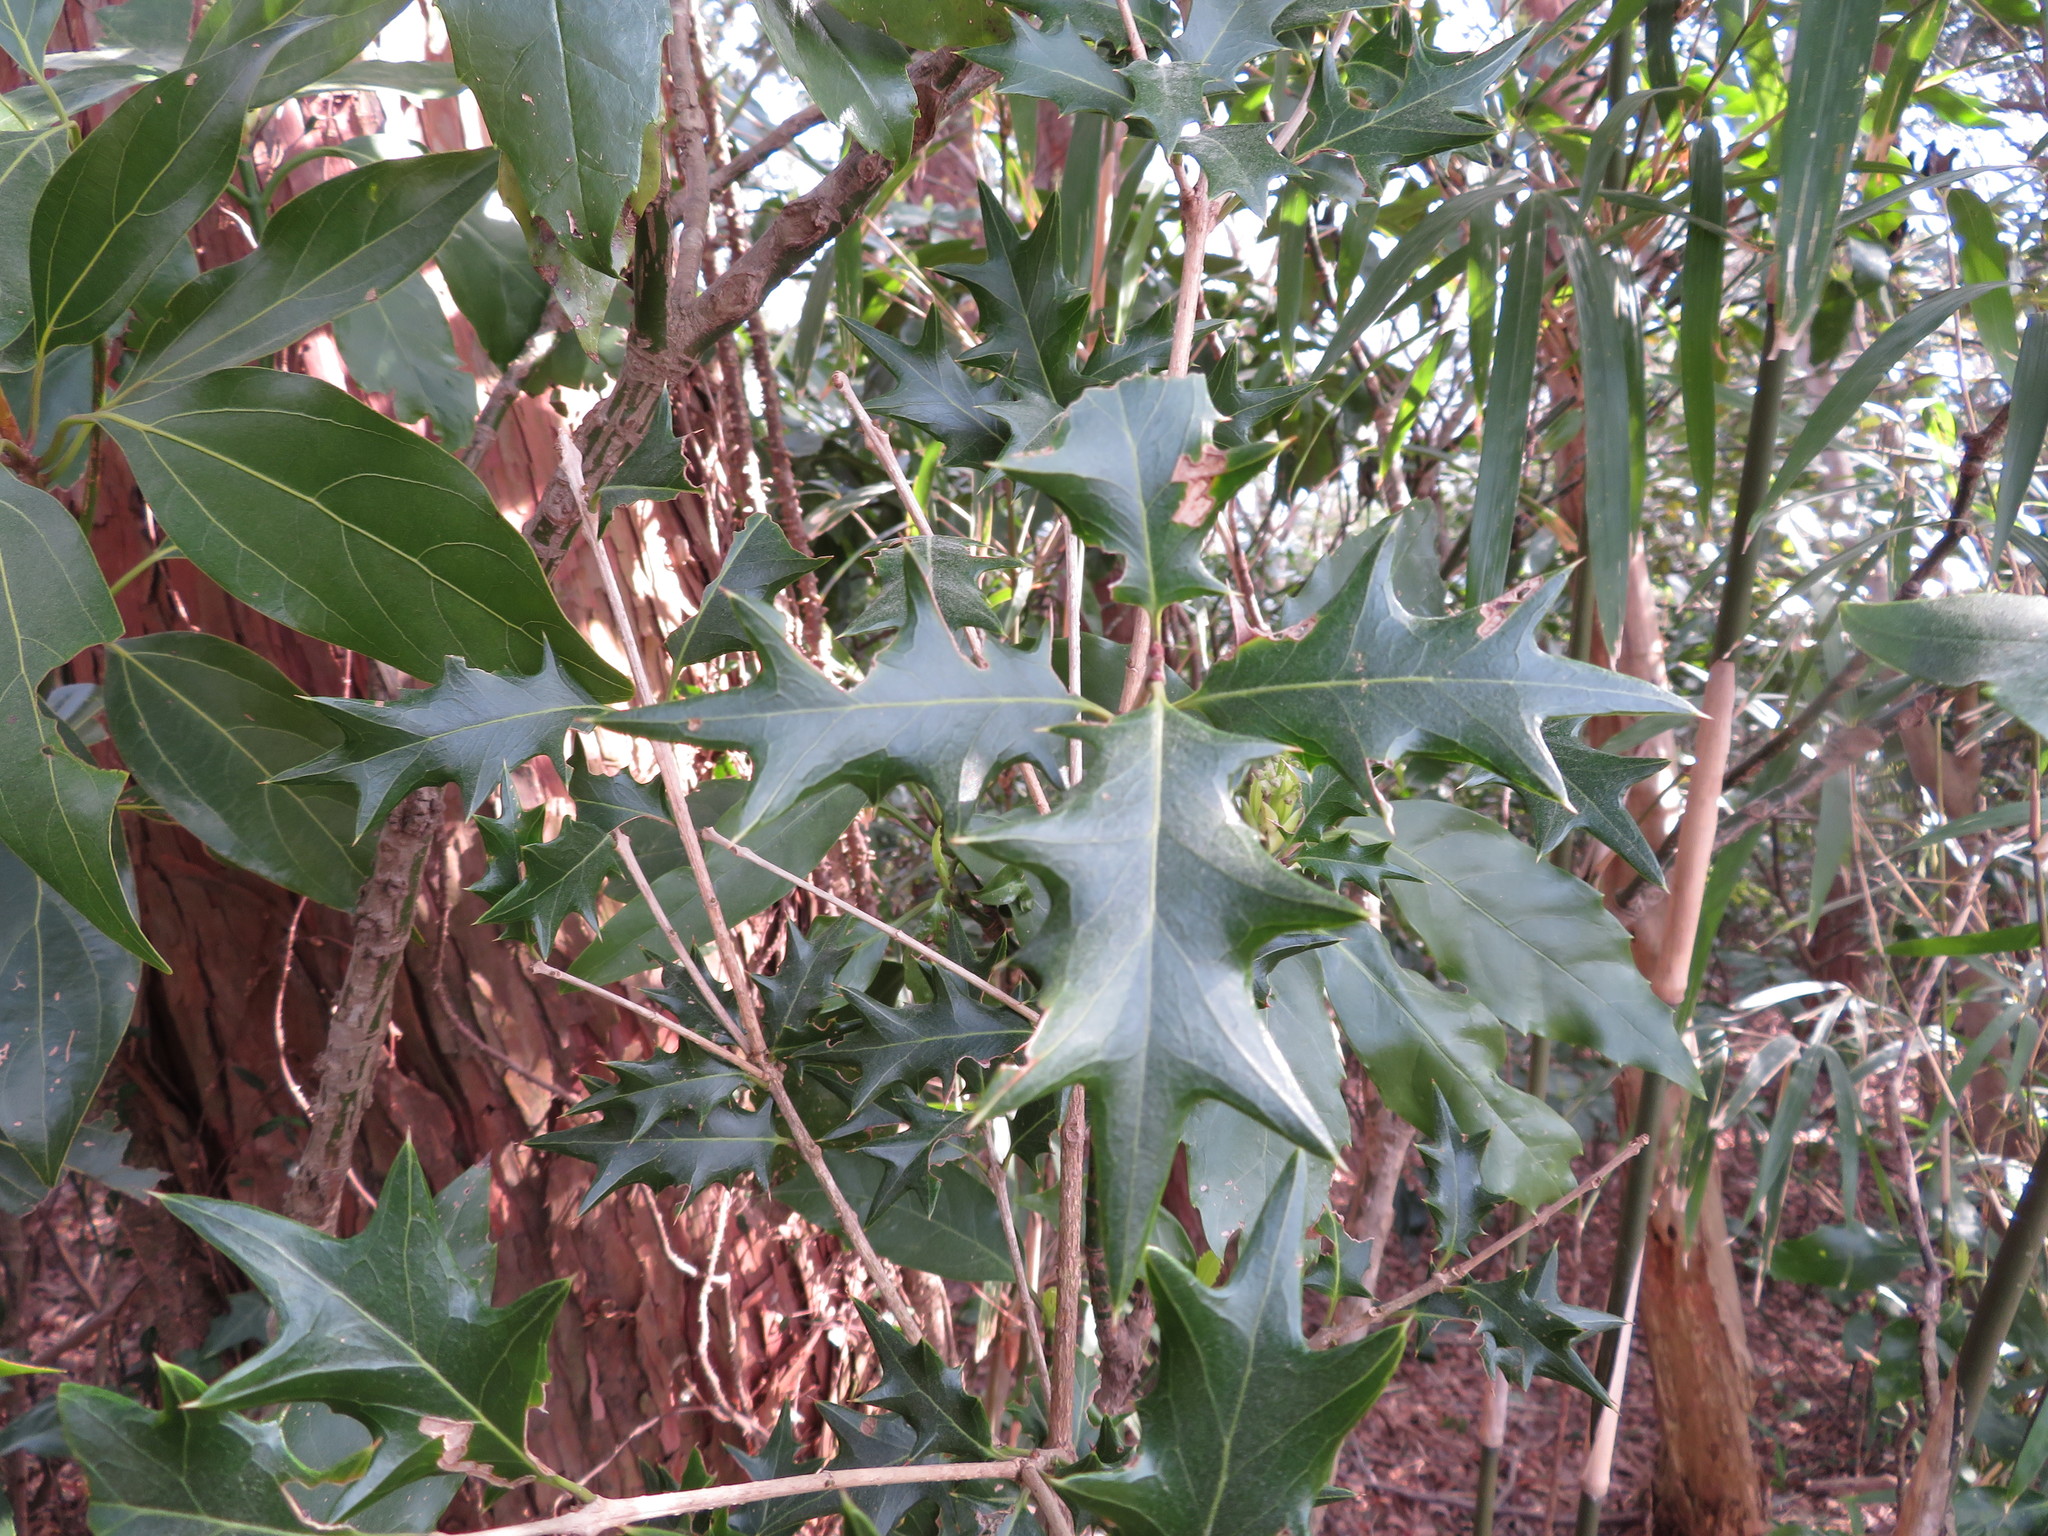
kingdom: Plantae
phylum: Tracheophyta
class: Magnoliopsida
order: Lamiales
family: Oleaceae
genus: Osmanthus
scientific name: Osmanthus heterophyllus
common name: Holly osmanthus
